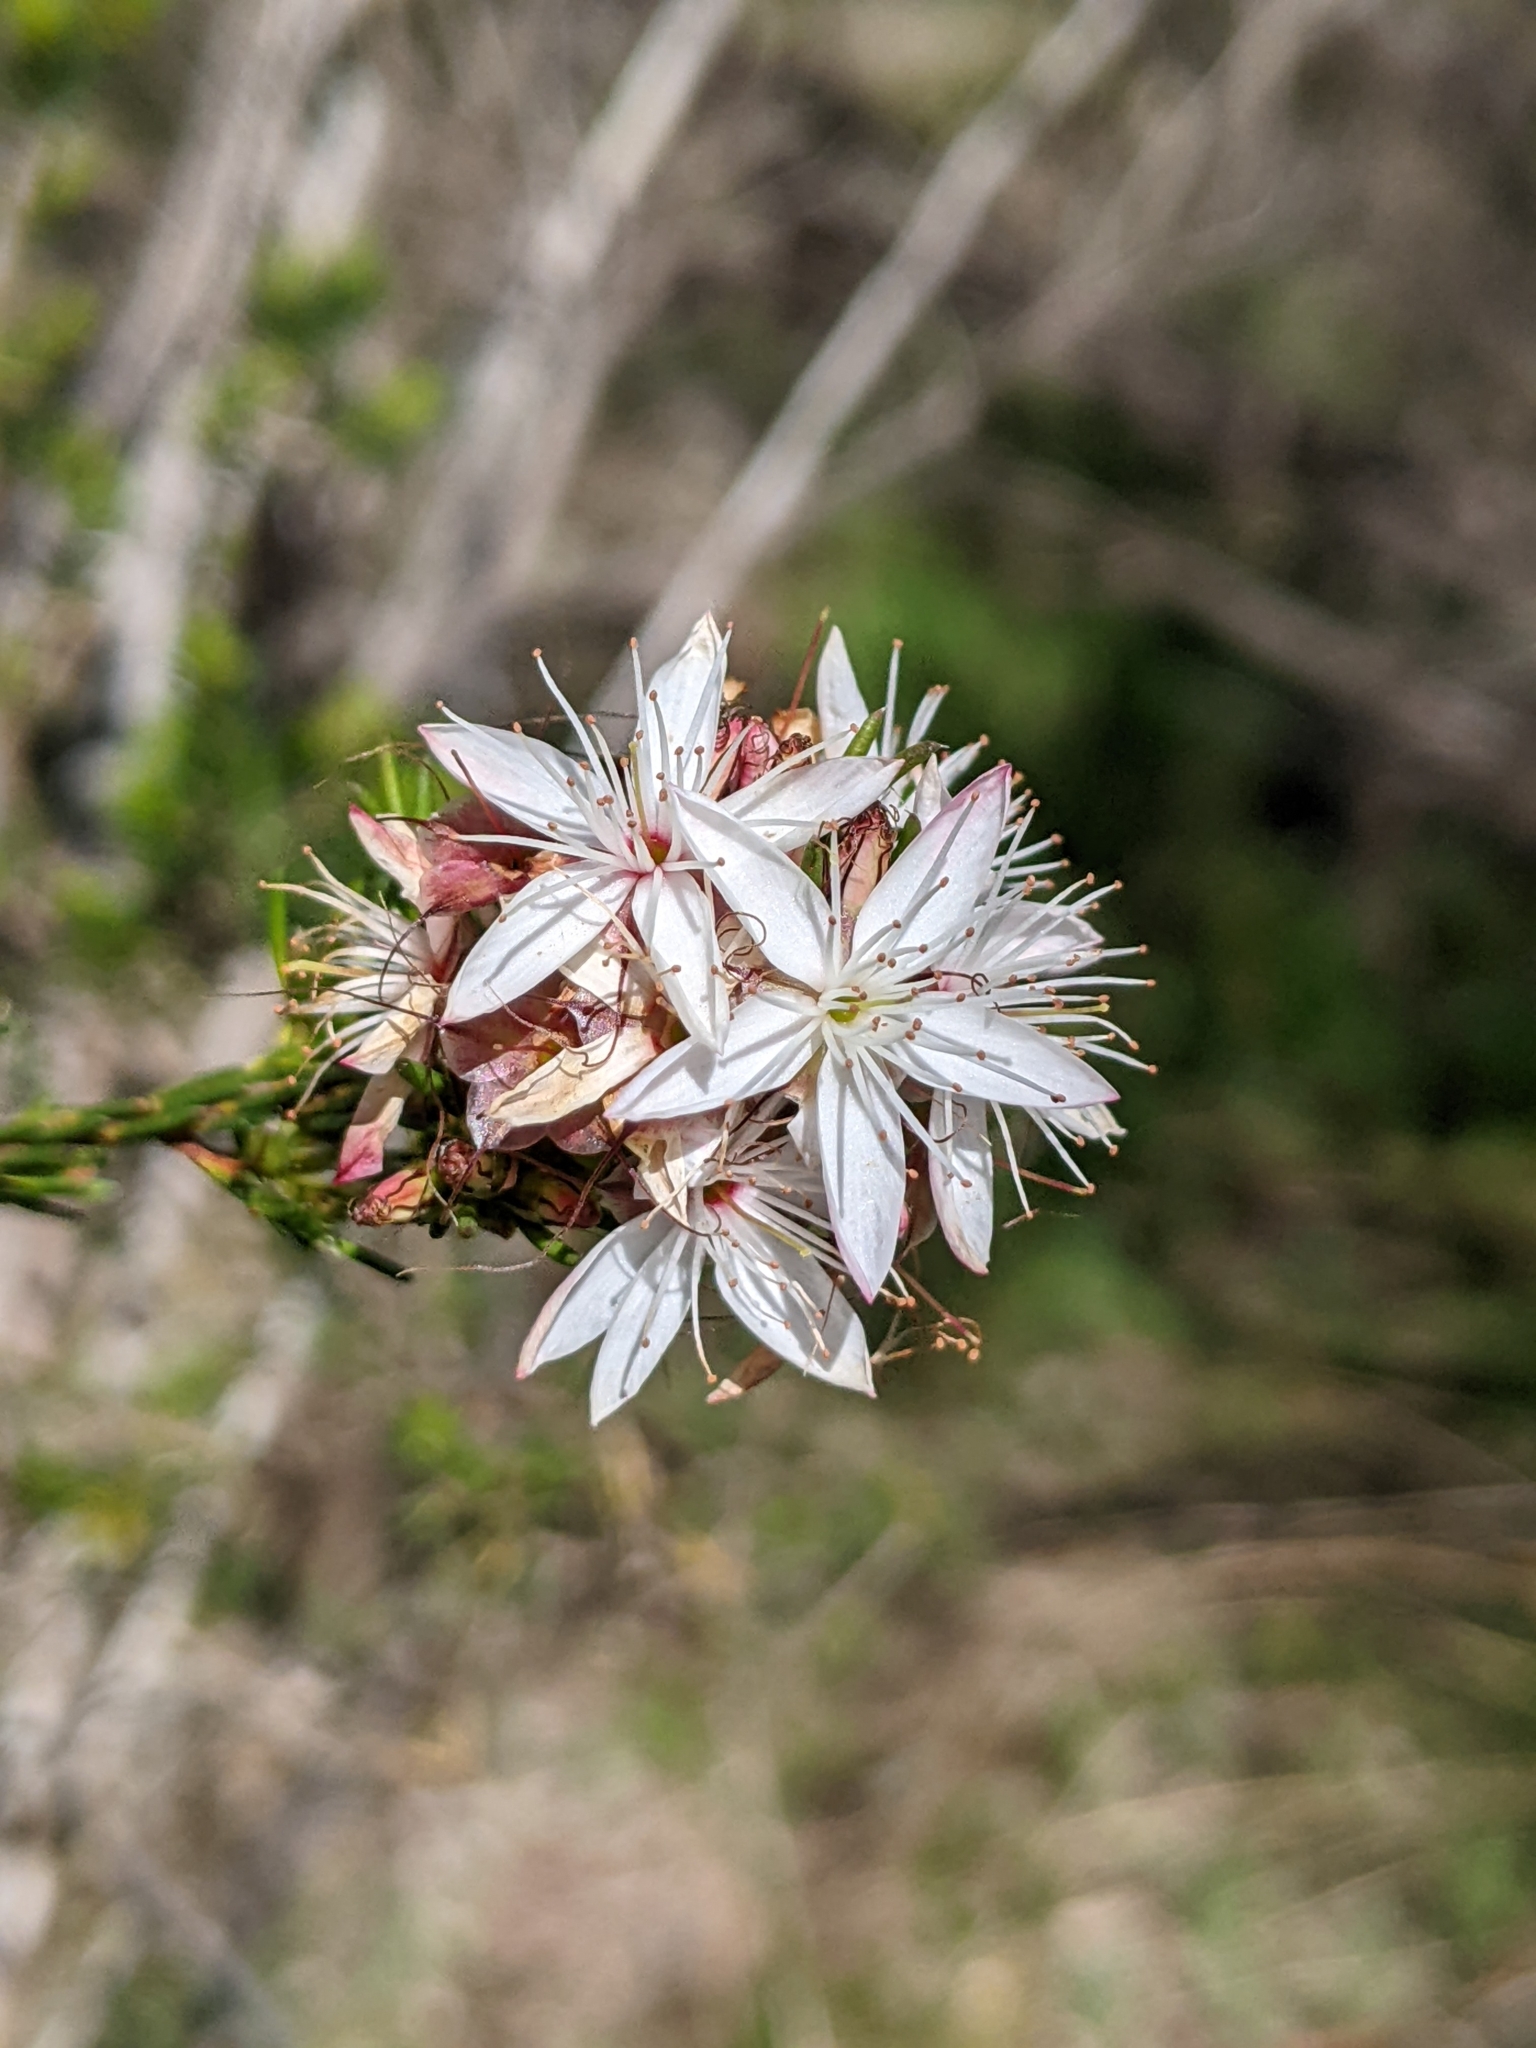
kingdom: Plantae
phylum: Tracheophyta
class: Magnoliopsida
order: Myrtales
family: Myrtaceae
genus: Calytrix
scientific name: Calytrix tetragona
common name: Common fringe myrtle
